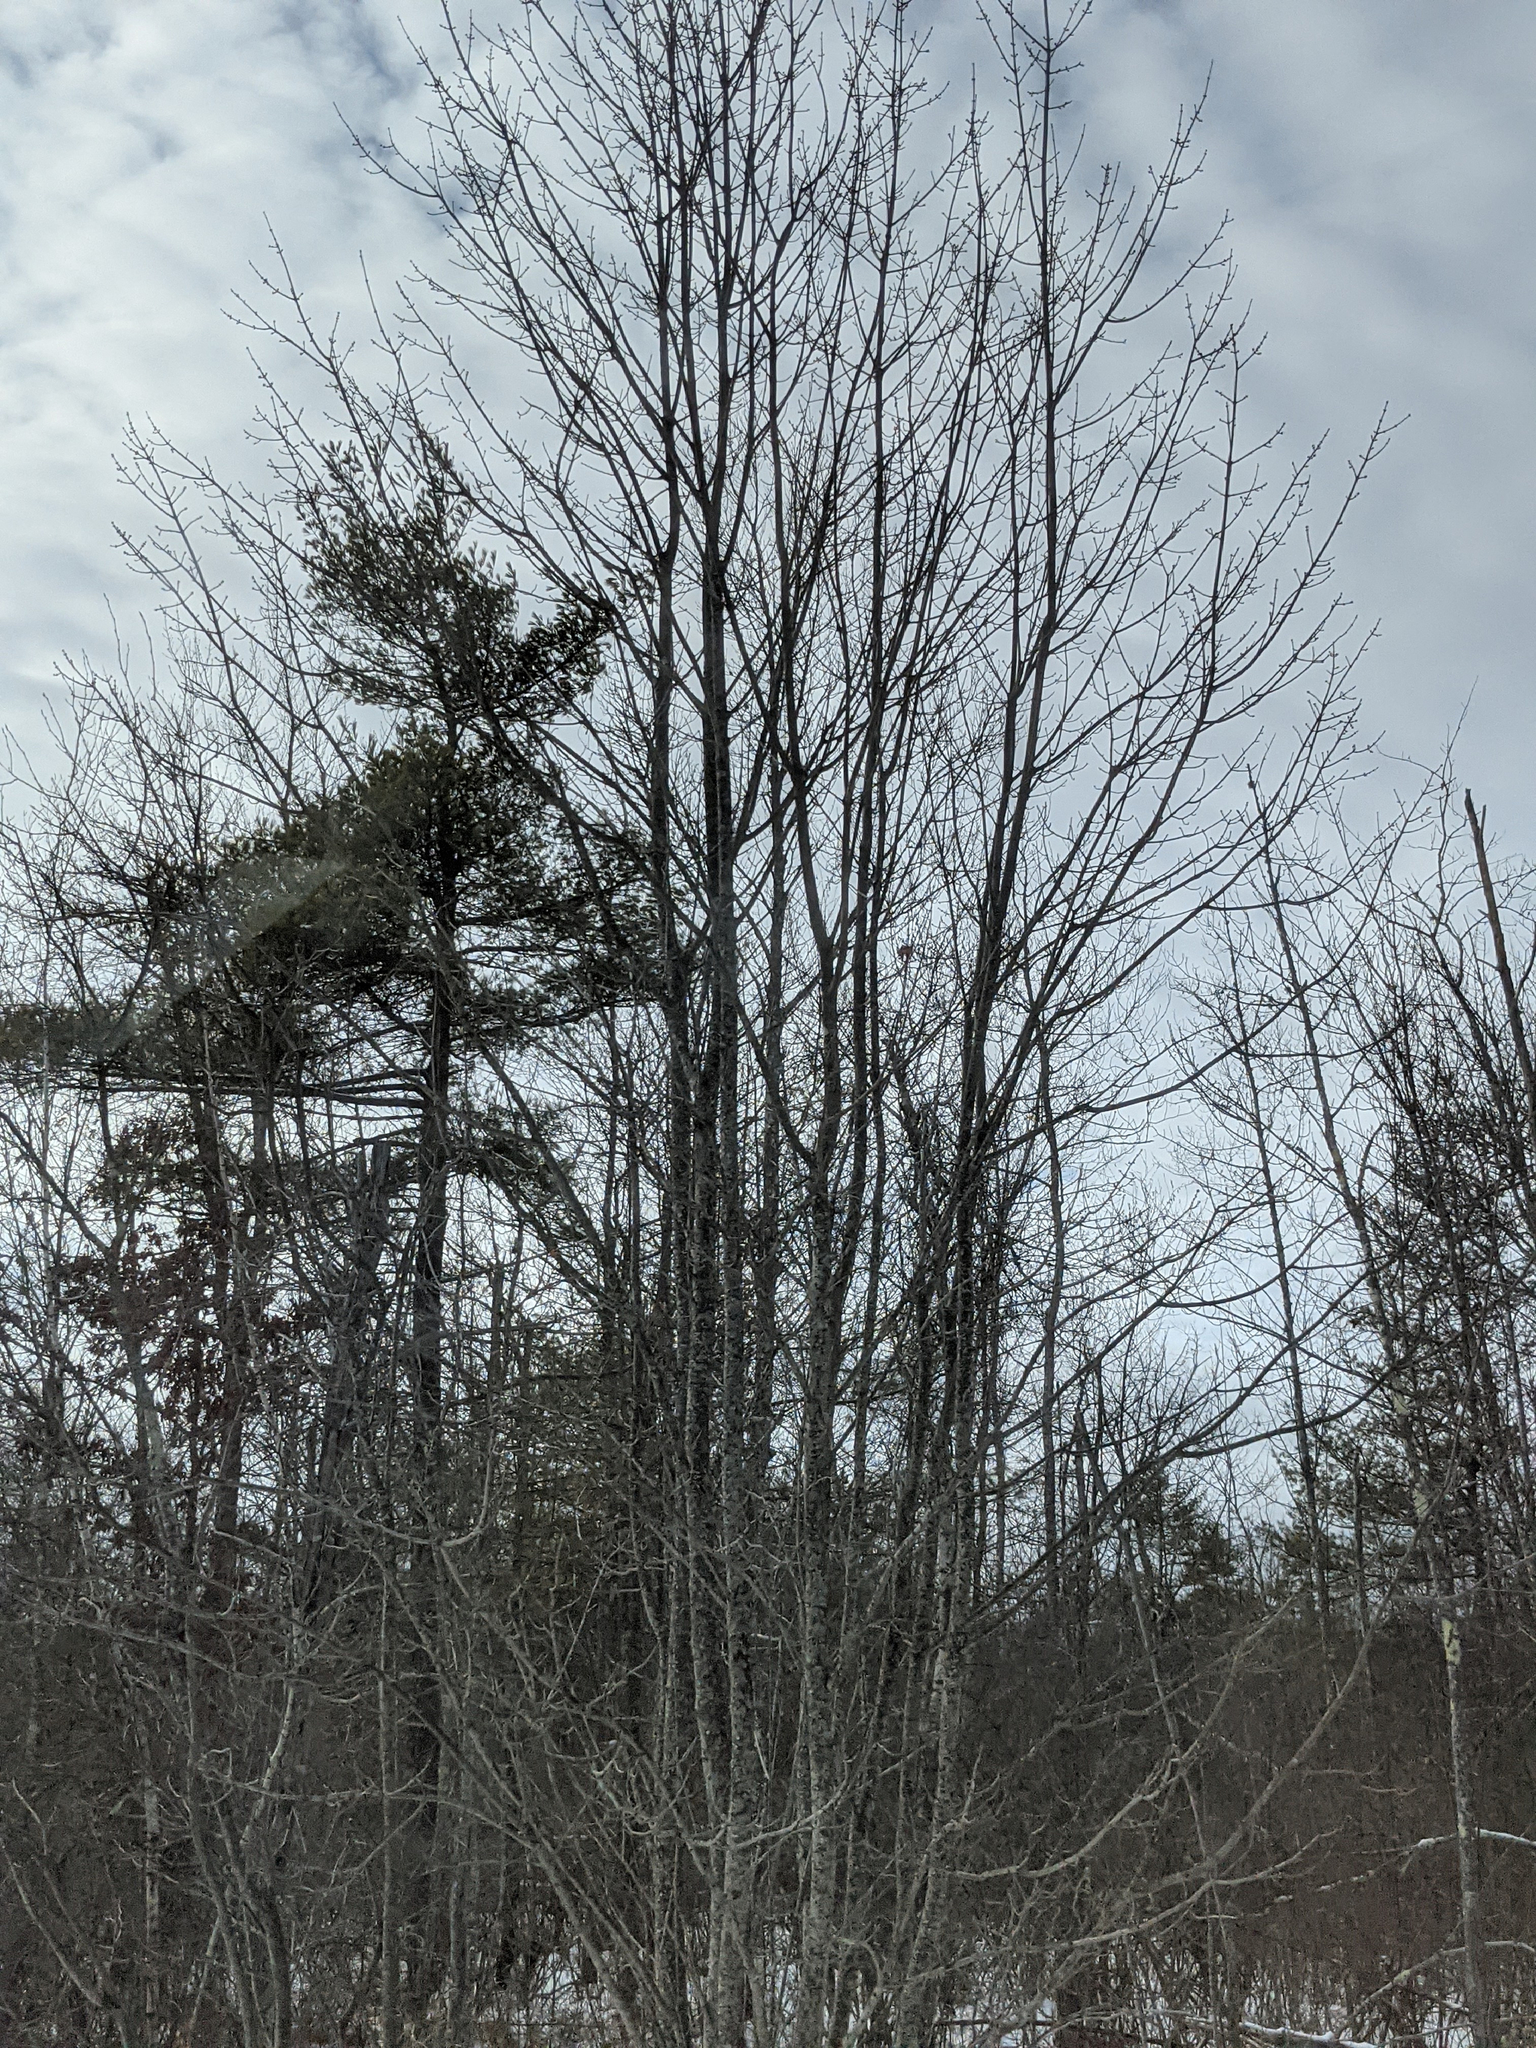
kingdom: Plantae
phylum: Tracheophyta
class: Pinopsida
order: Pinales
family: Pinaceae
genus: Pinus
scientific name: Pinus strobus
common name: Weymouth pine
